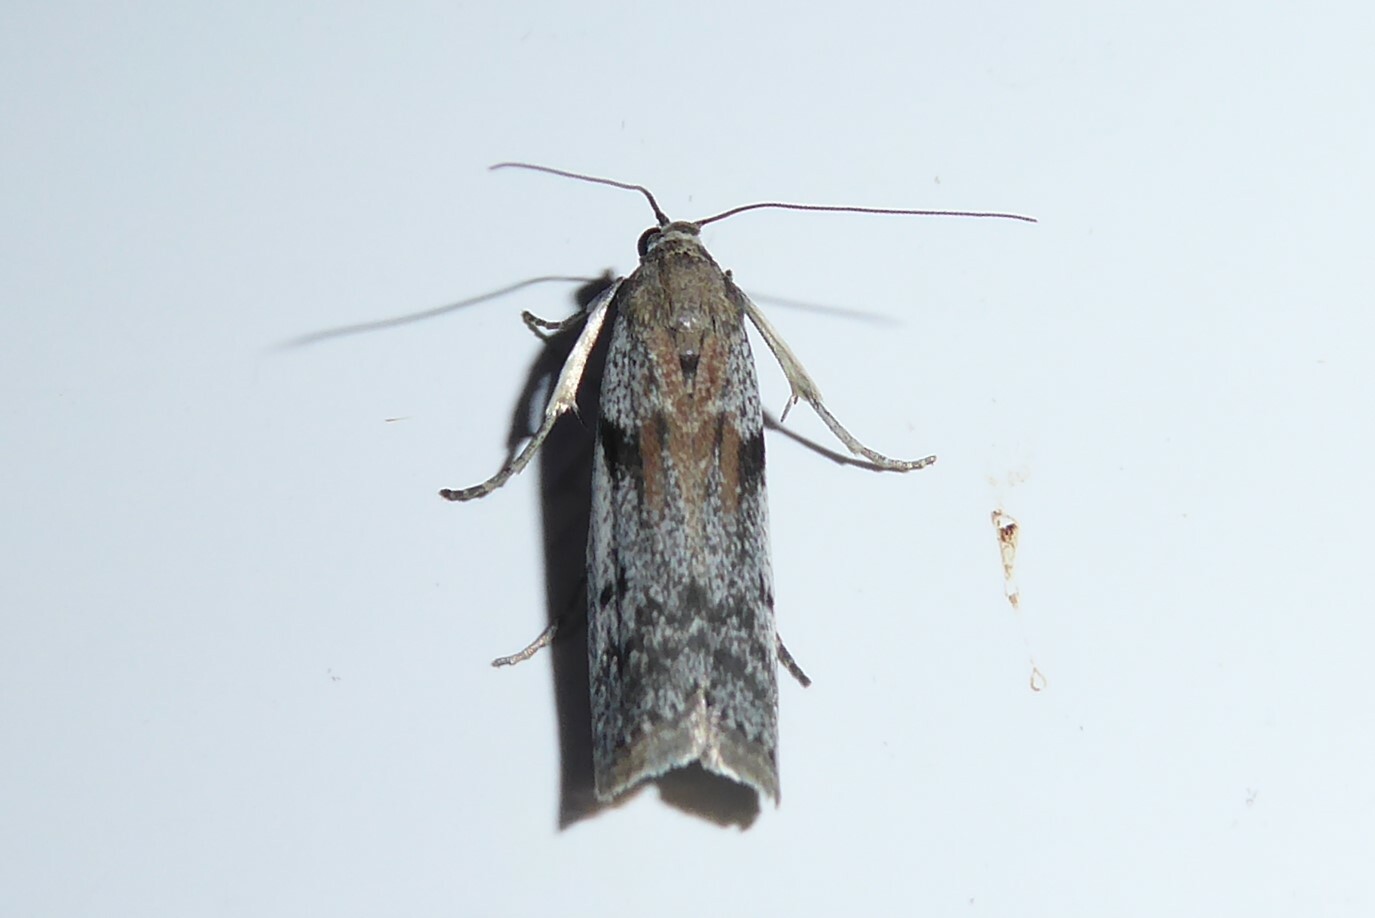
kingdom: Animalia
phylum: Arthropoda
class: Insecta
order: Lepidoptera
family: Pyralidae
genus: Patagoniodes
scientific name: Patagoniodes farinaria
